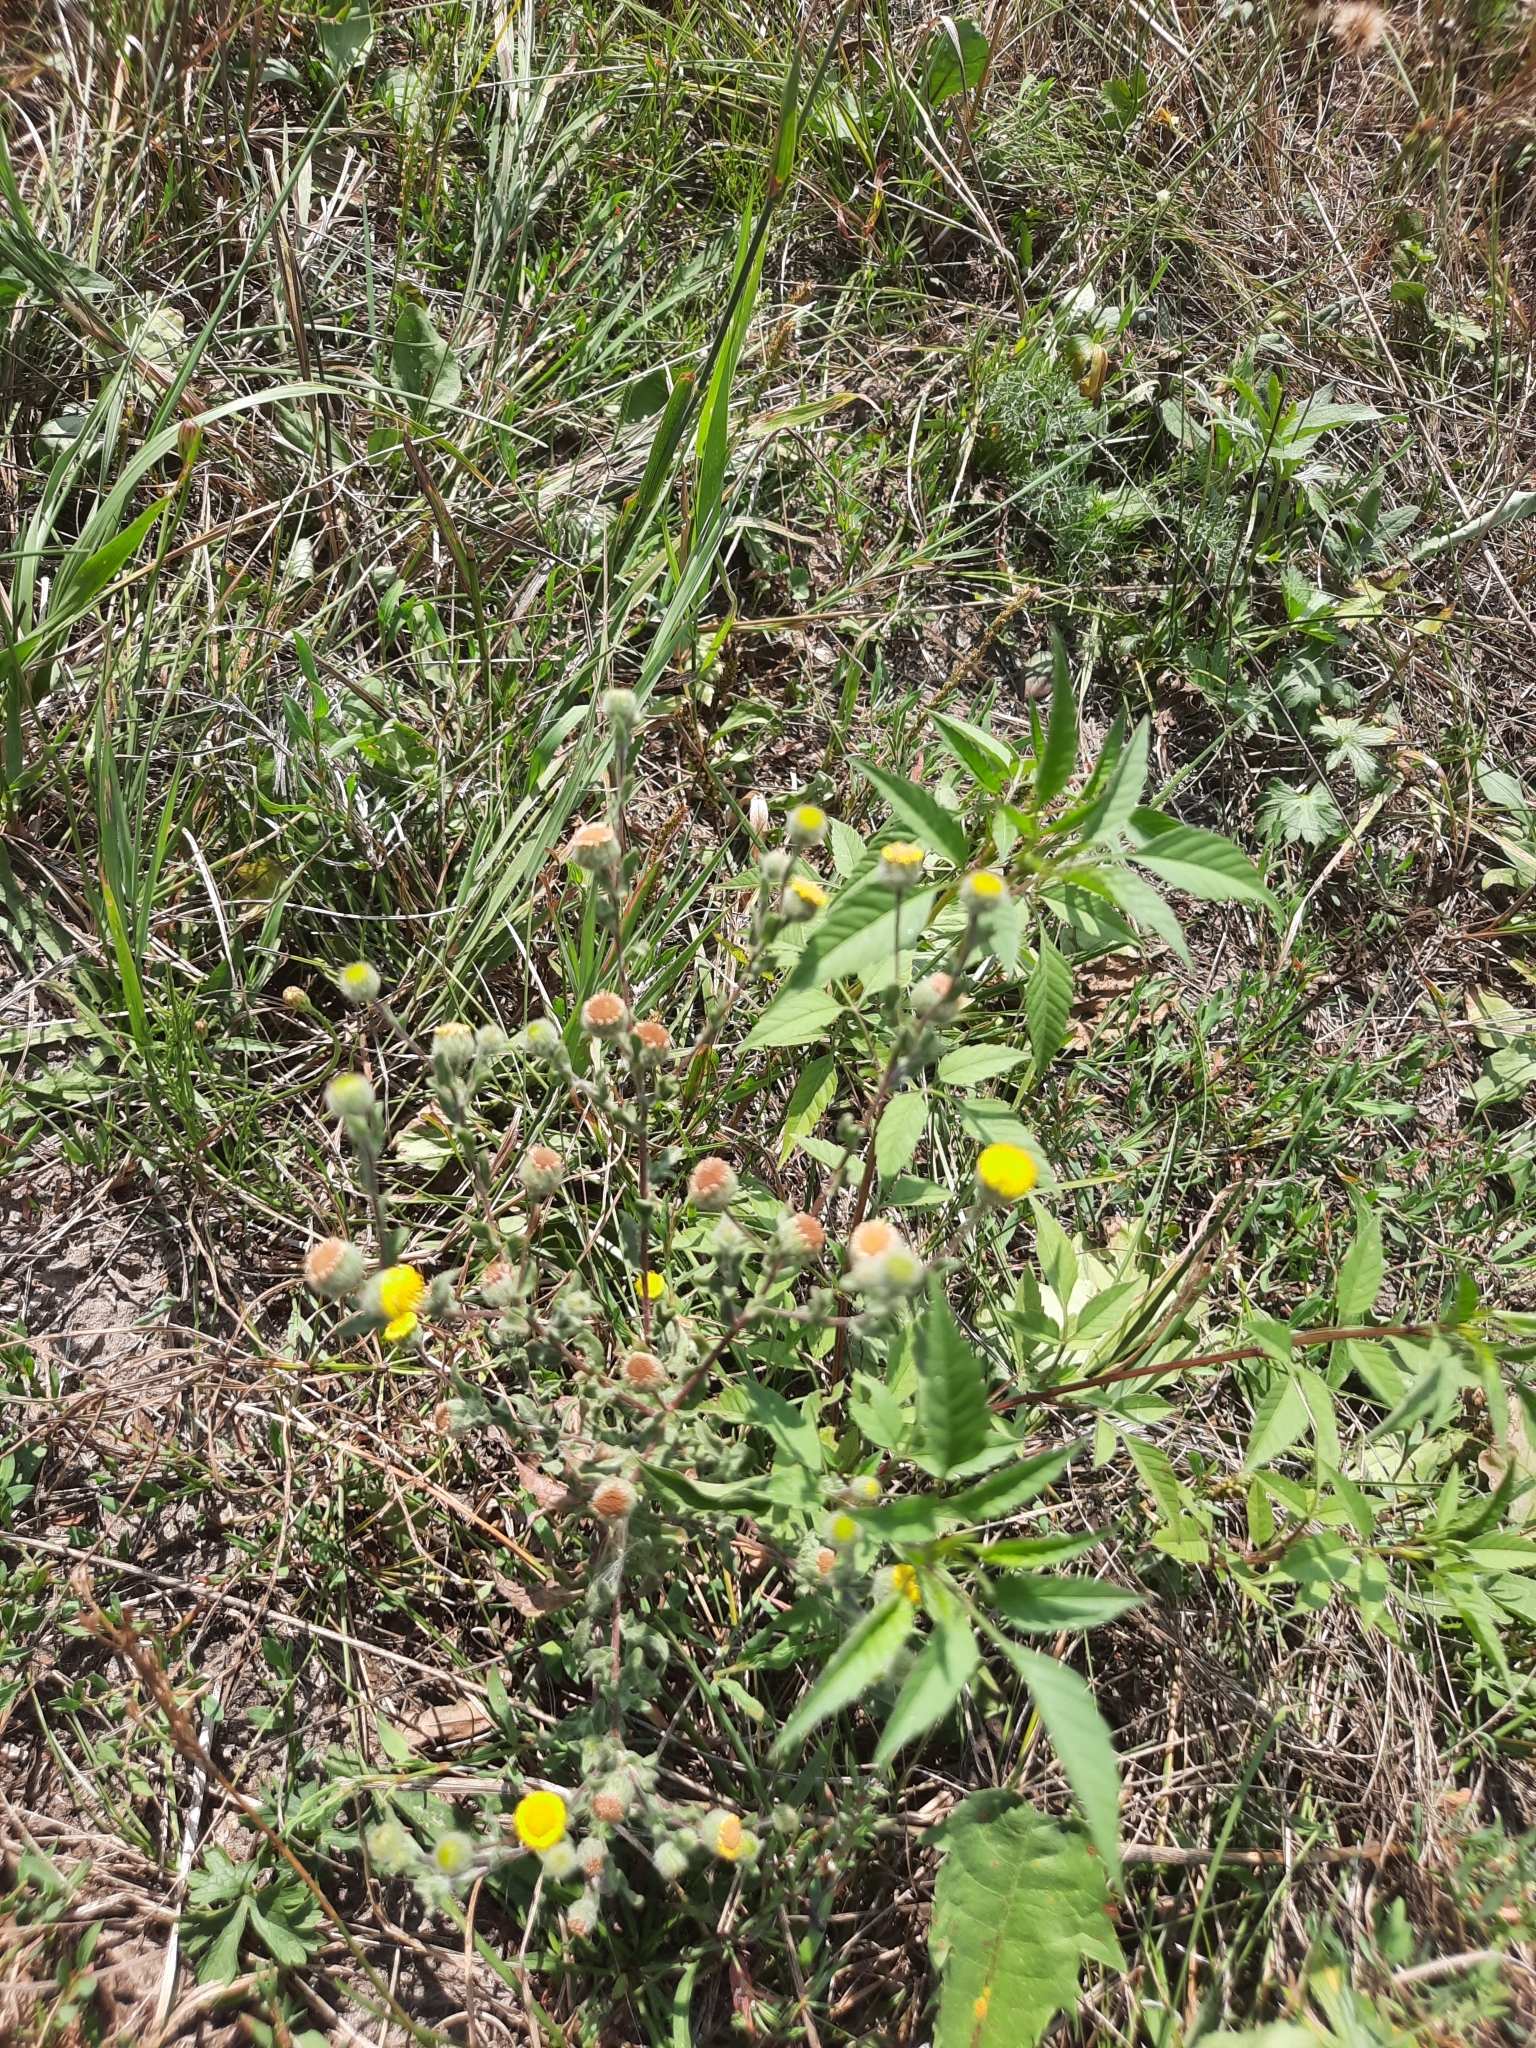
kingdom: Plantae
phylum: Tracheophyta
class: Magnoliopsida
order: Asterales
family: Asteraceae
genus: Pulicaria
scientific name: Pulicaria vulgaris
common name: Small fleabane
